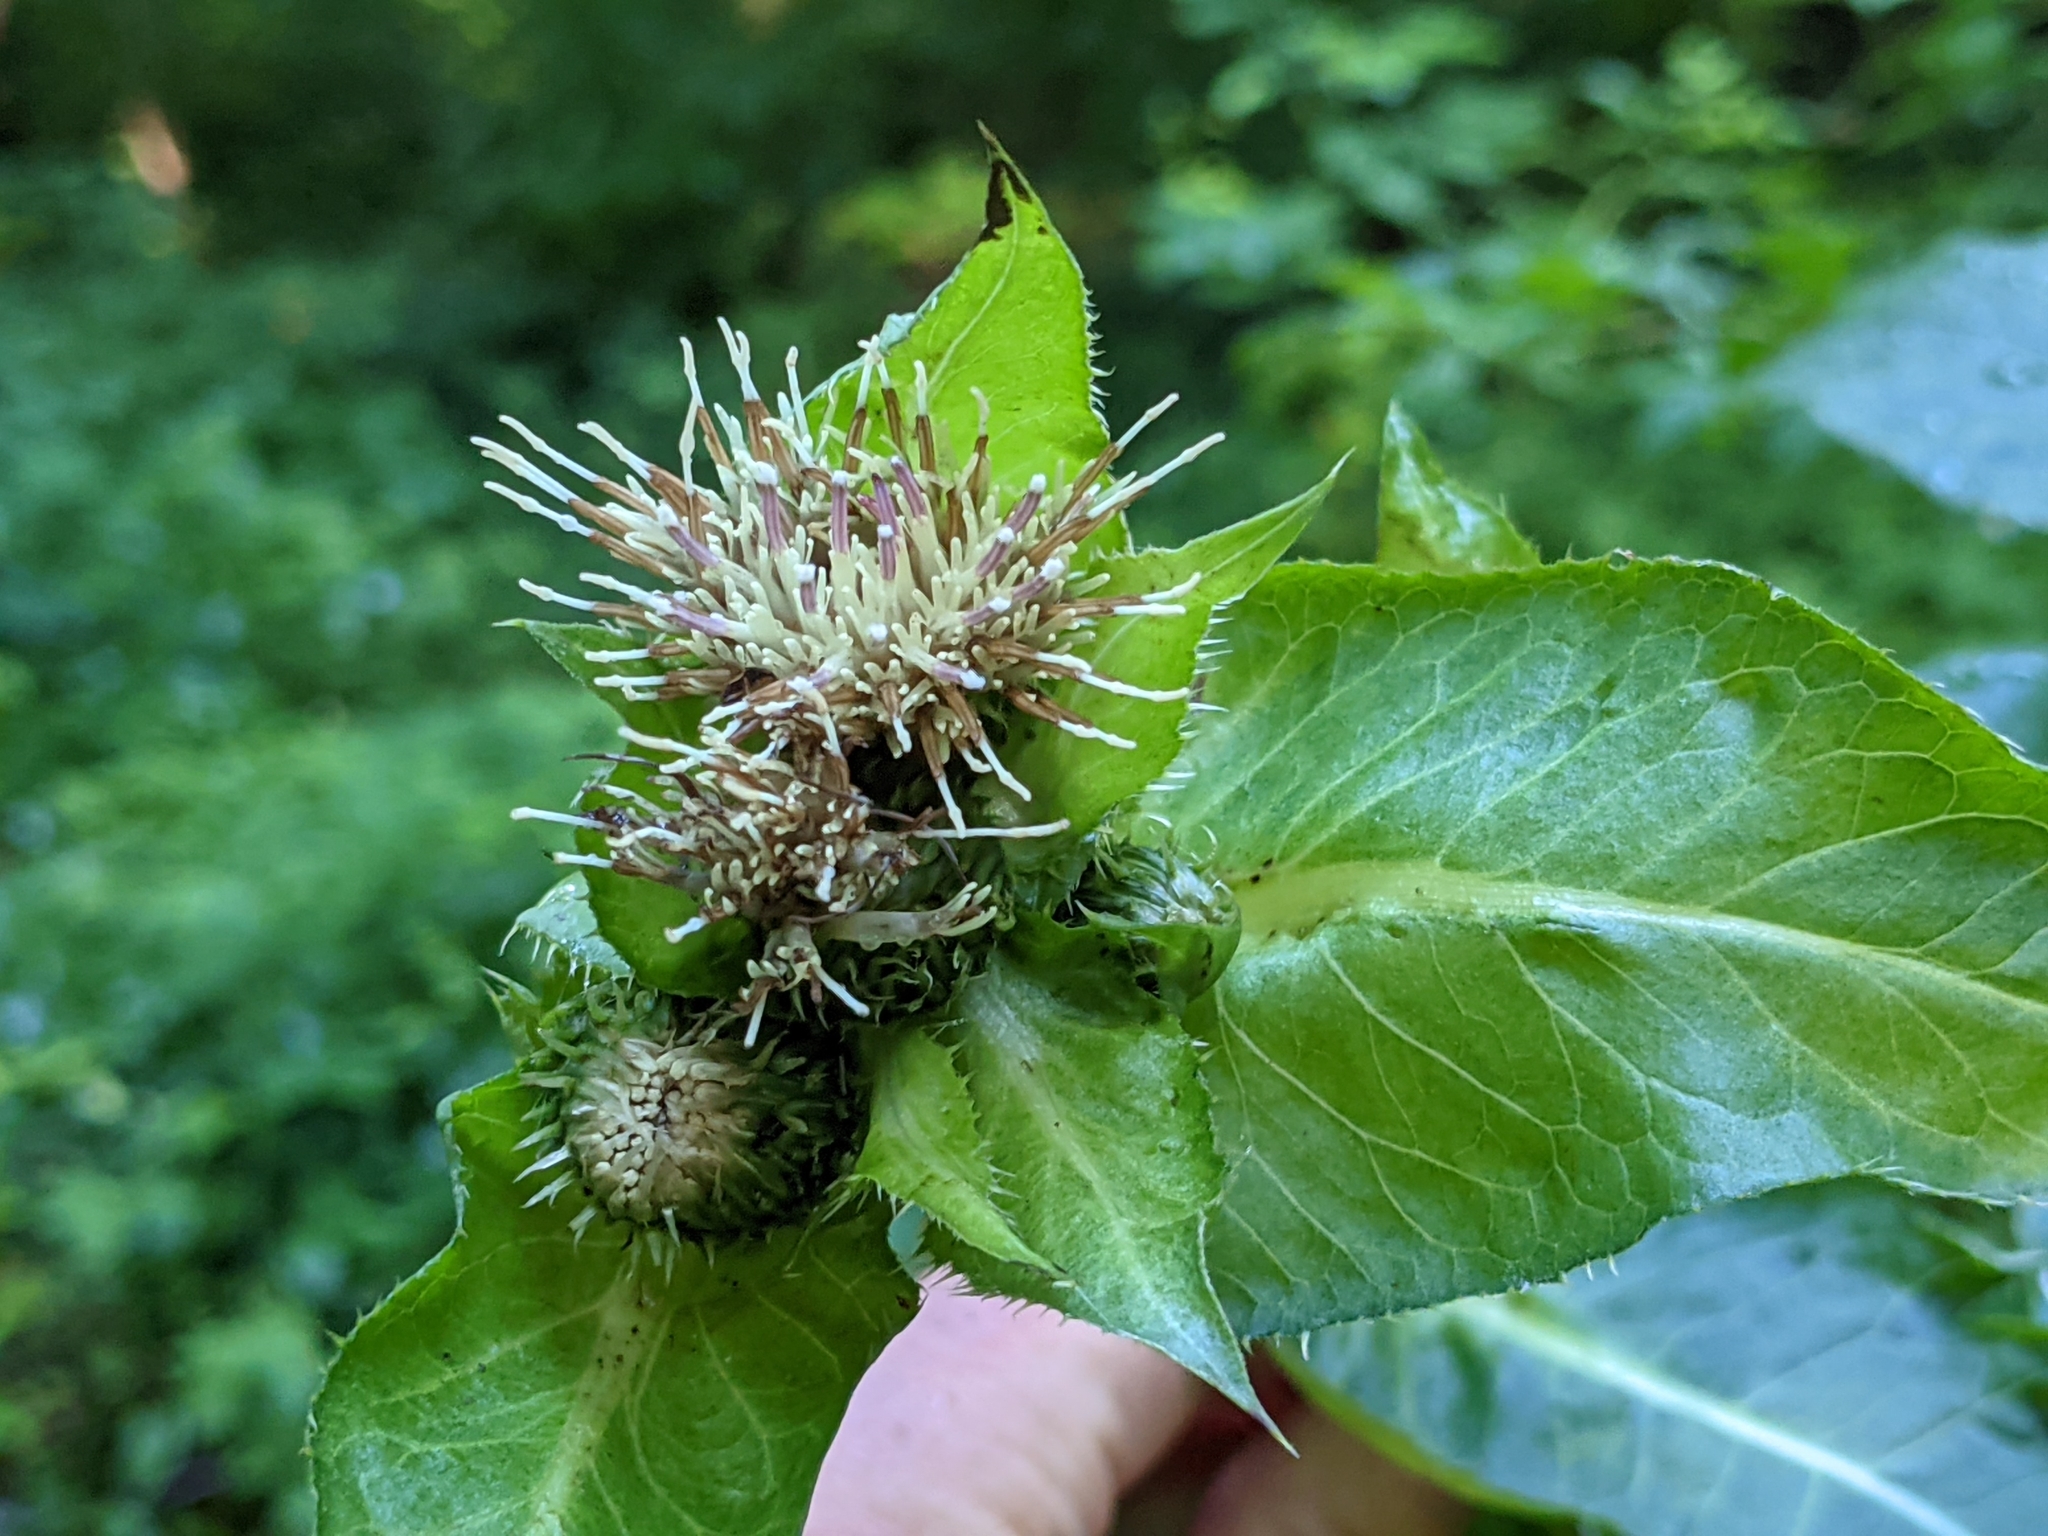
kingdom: Plantae
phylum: Tracheophyta
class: Magnoliopsida
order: Asterales
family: Asteraceae
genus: Cirsium
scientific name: Cirsium oleraceum
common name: Cabbage thistle
